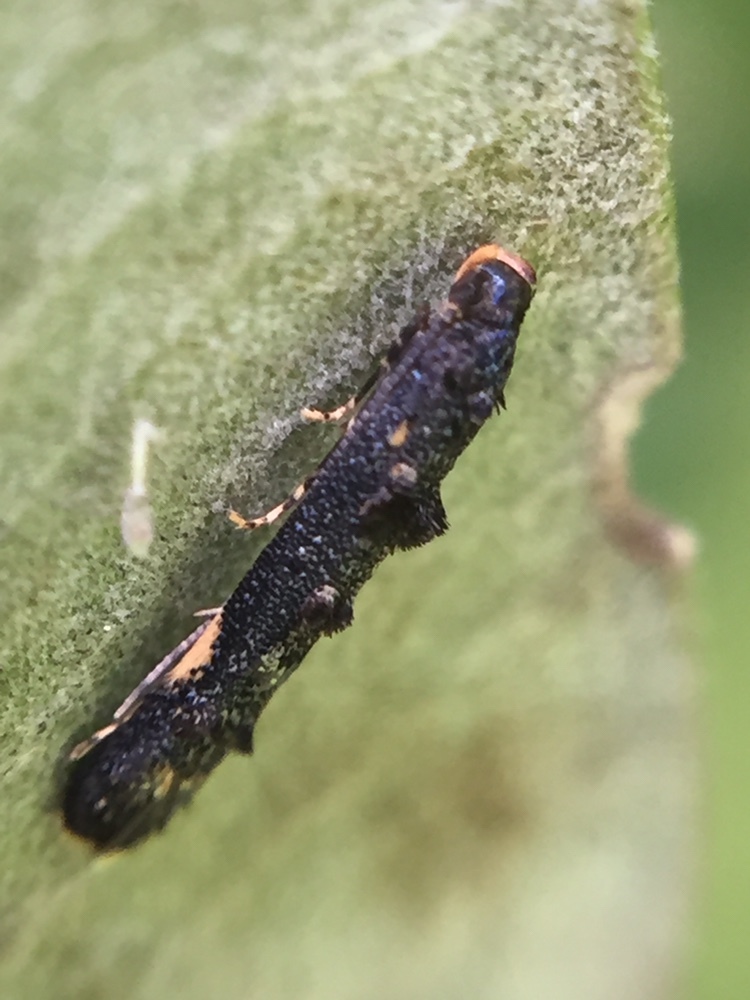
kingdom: Animalia
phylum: Arthropoda
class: Insecta
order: Lepidoptera
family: Elachistidae
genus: Microcolona
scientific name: Microcolona
